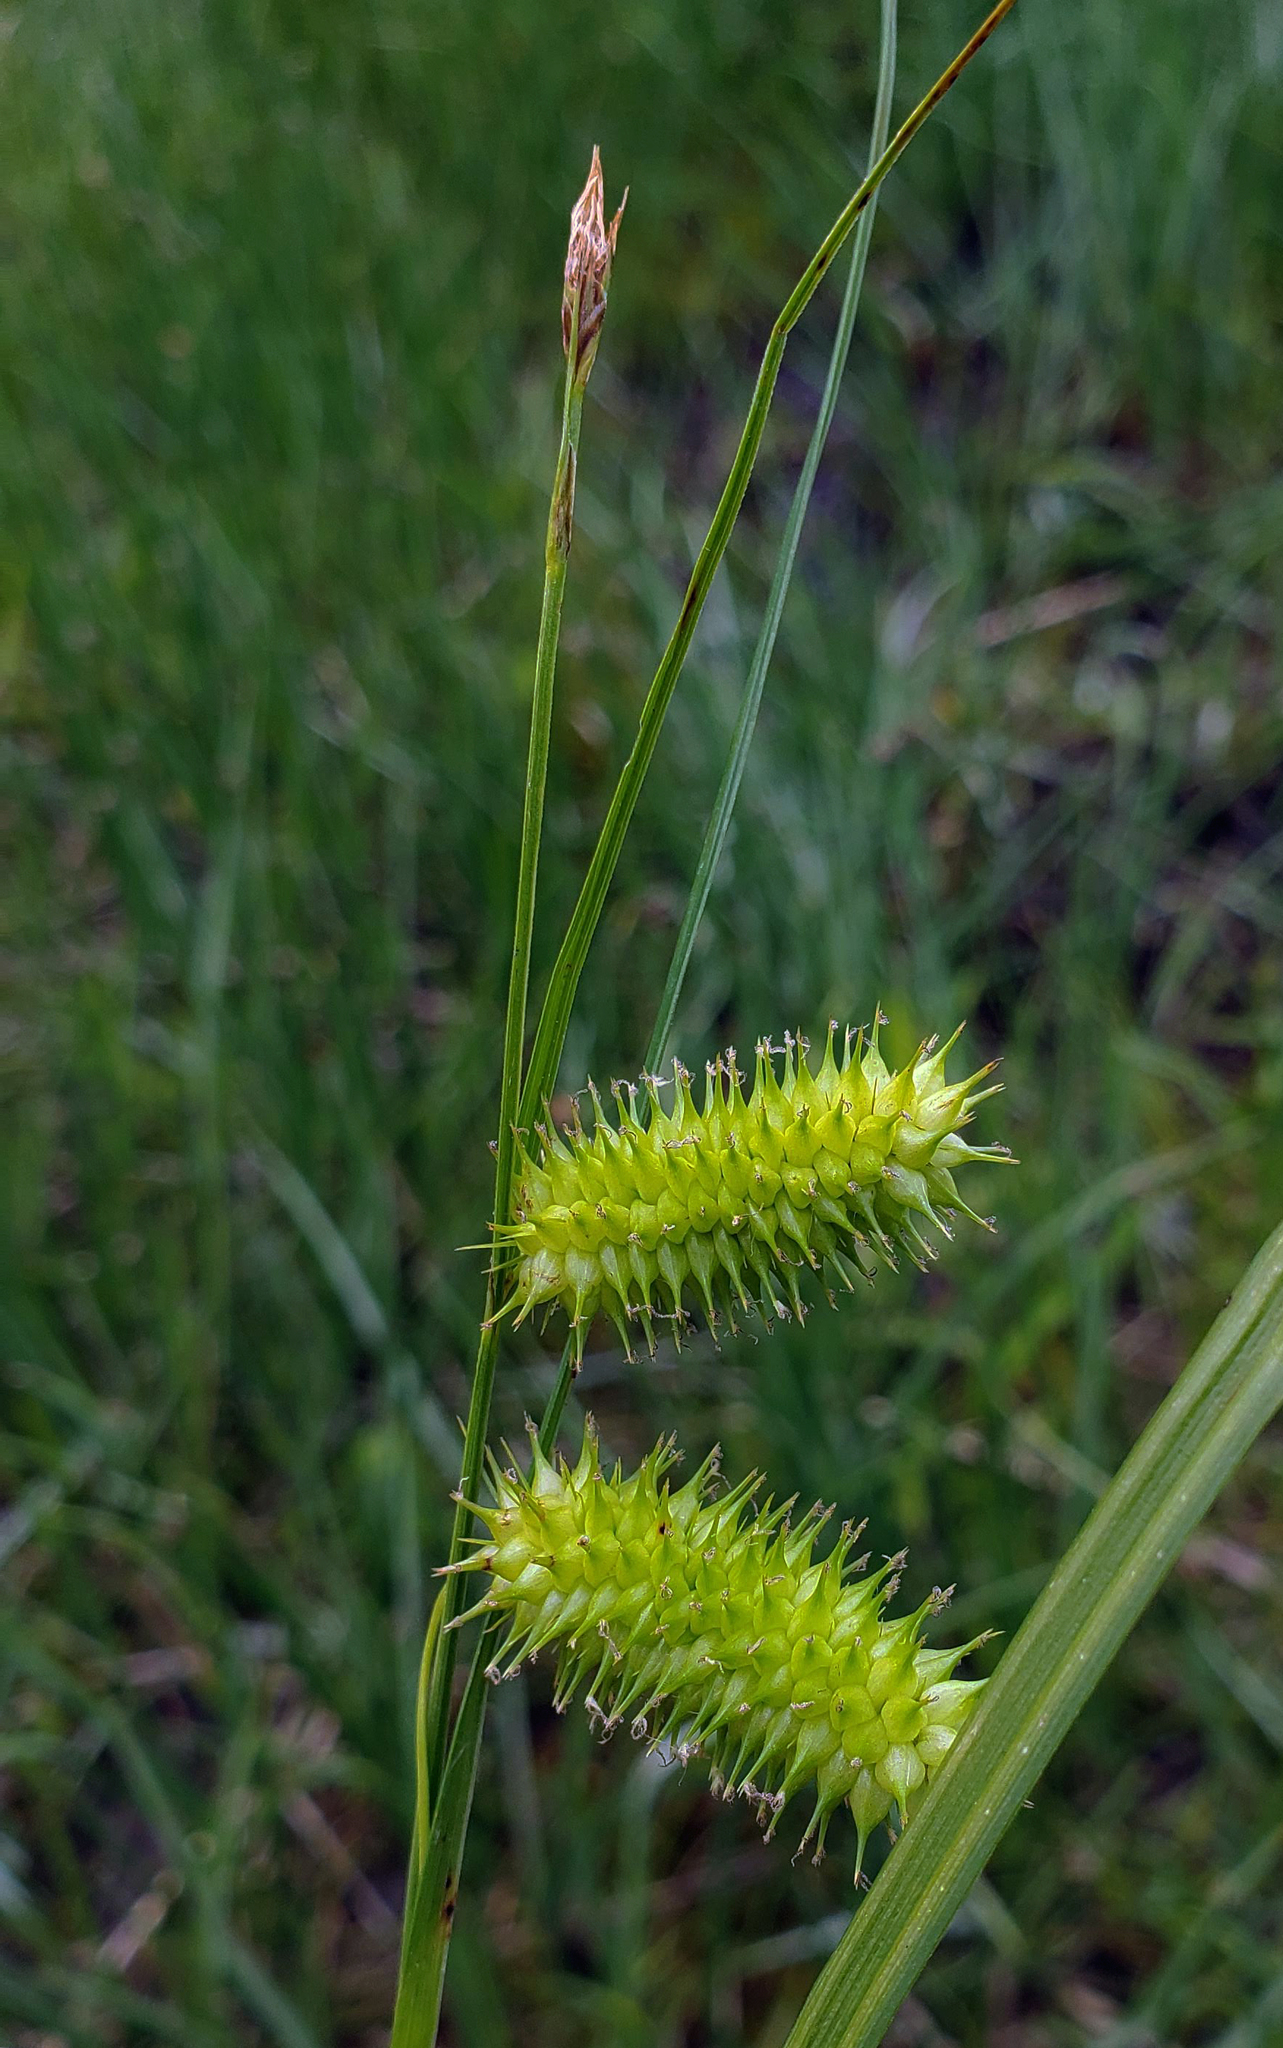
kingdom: Plantae
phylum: Tracheophyta
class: Liliopsida
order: Poales
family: Cyperaceae
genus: Carex
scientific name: Carex hystericina
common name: Bottlebrush sedge
